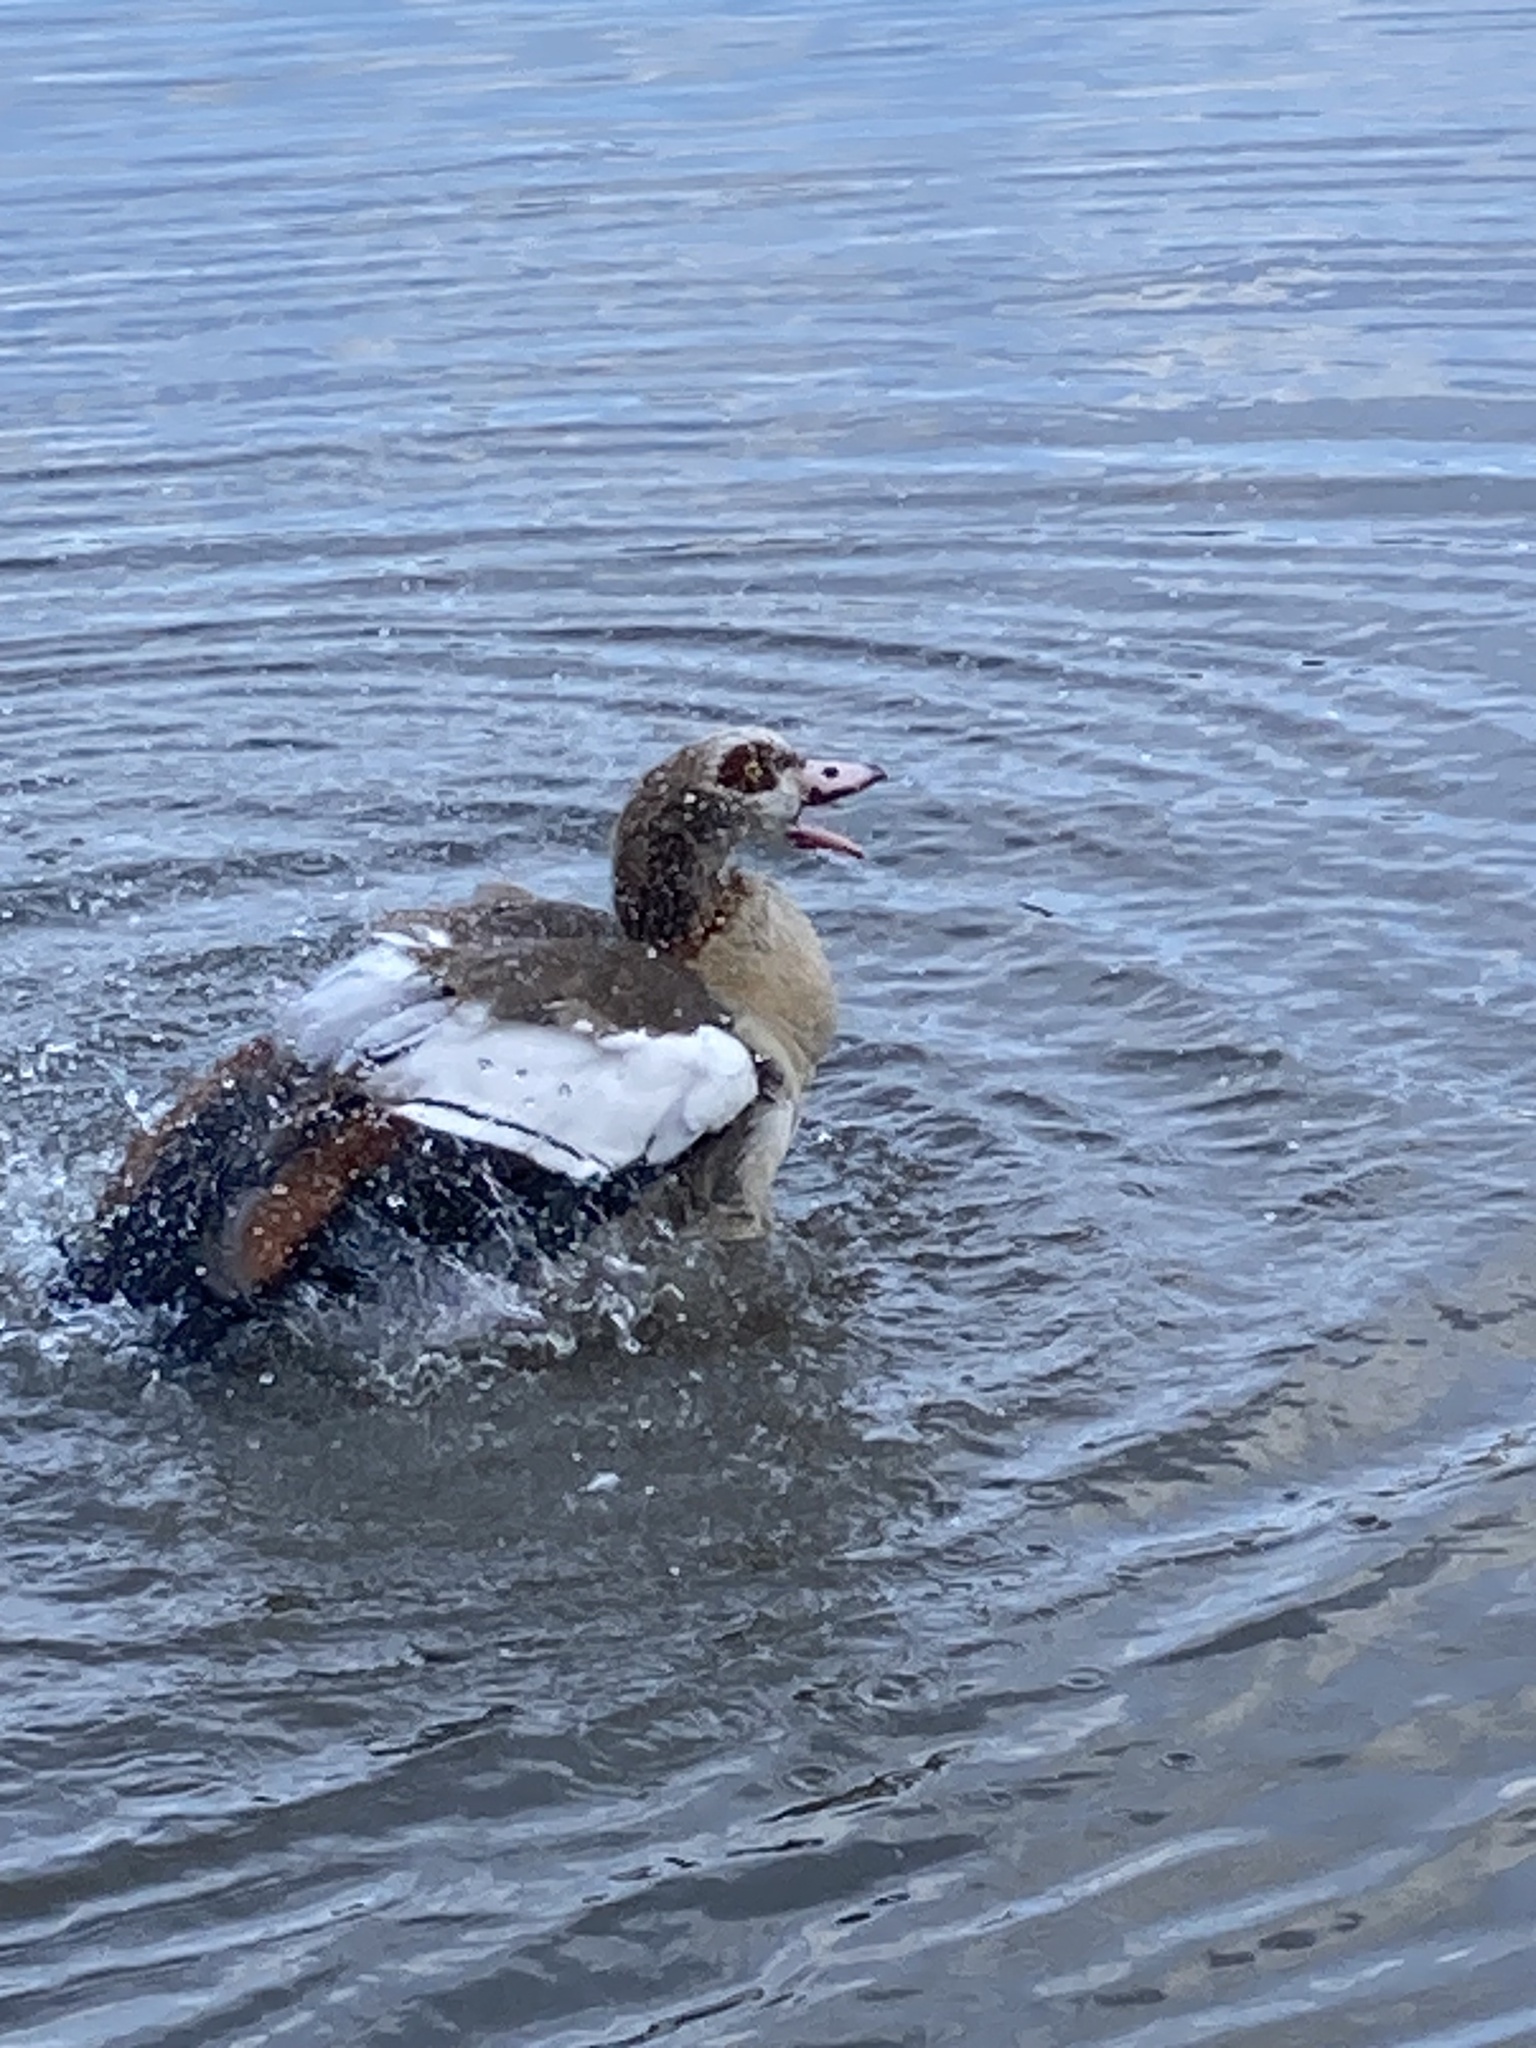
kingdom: Animalia
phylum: Chordata
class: Aves
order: Anseriformes
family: Anatidae
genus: Alopochen
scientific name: Alopochen aegyptiaca
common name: Egyptian goose
